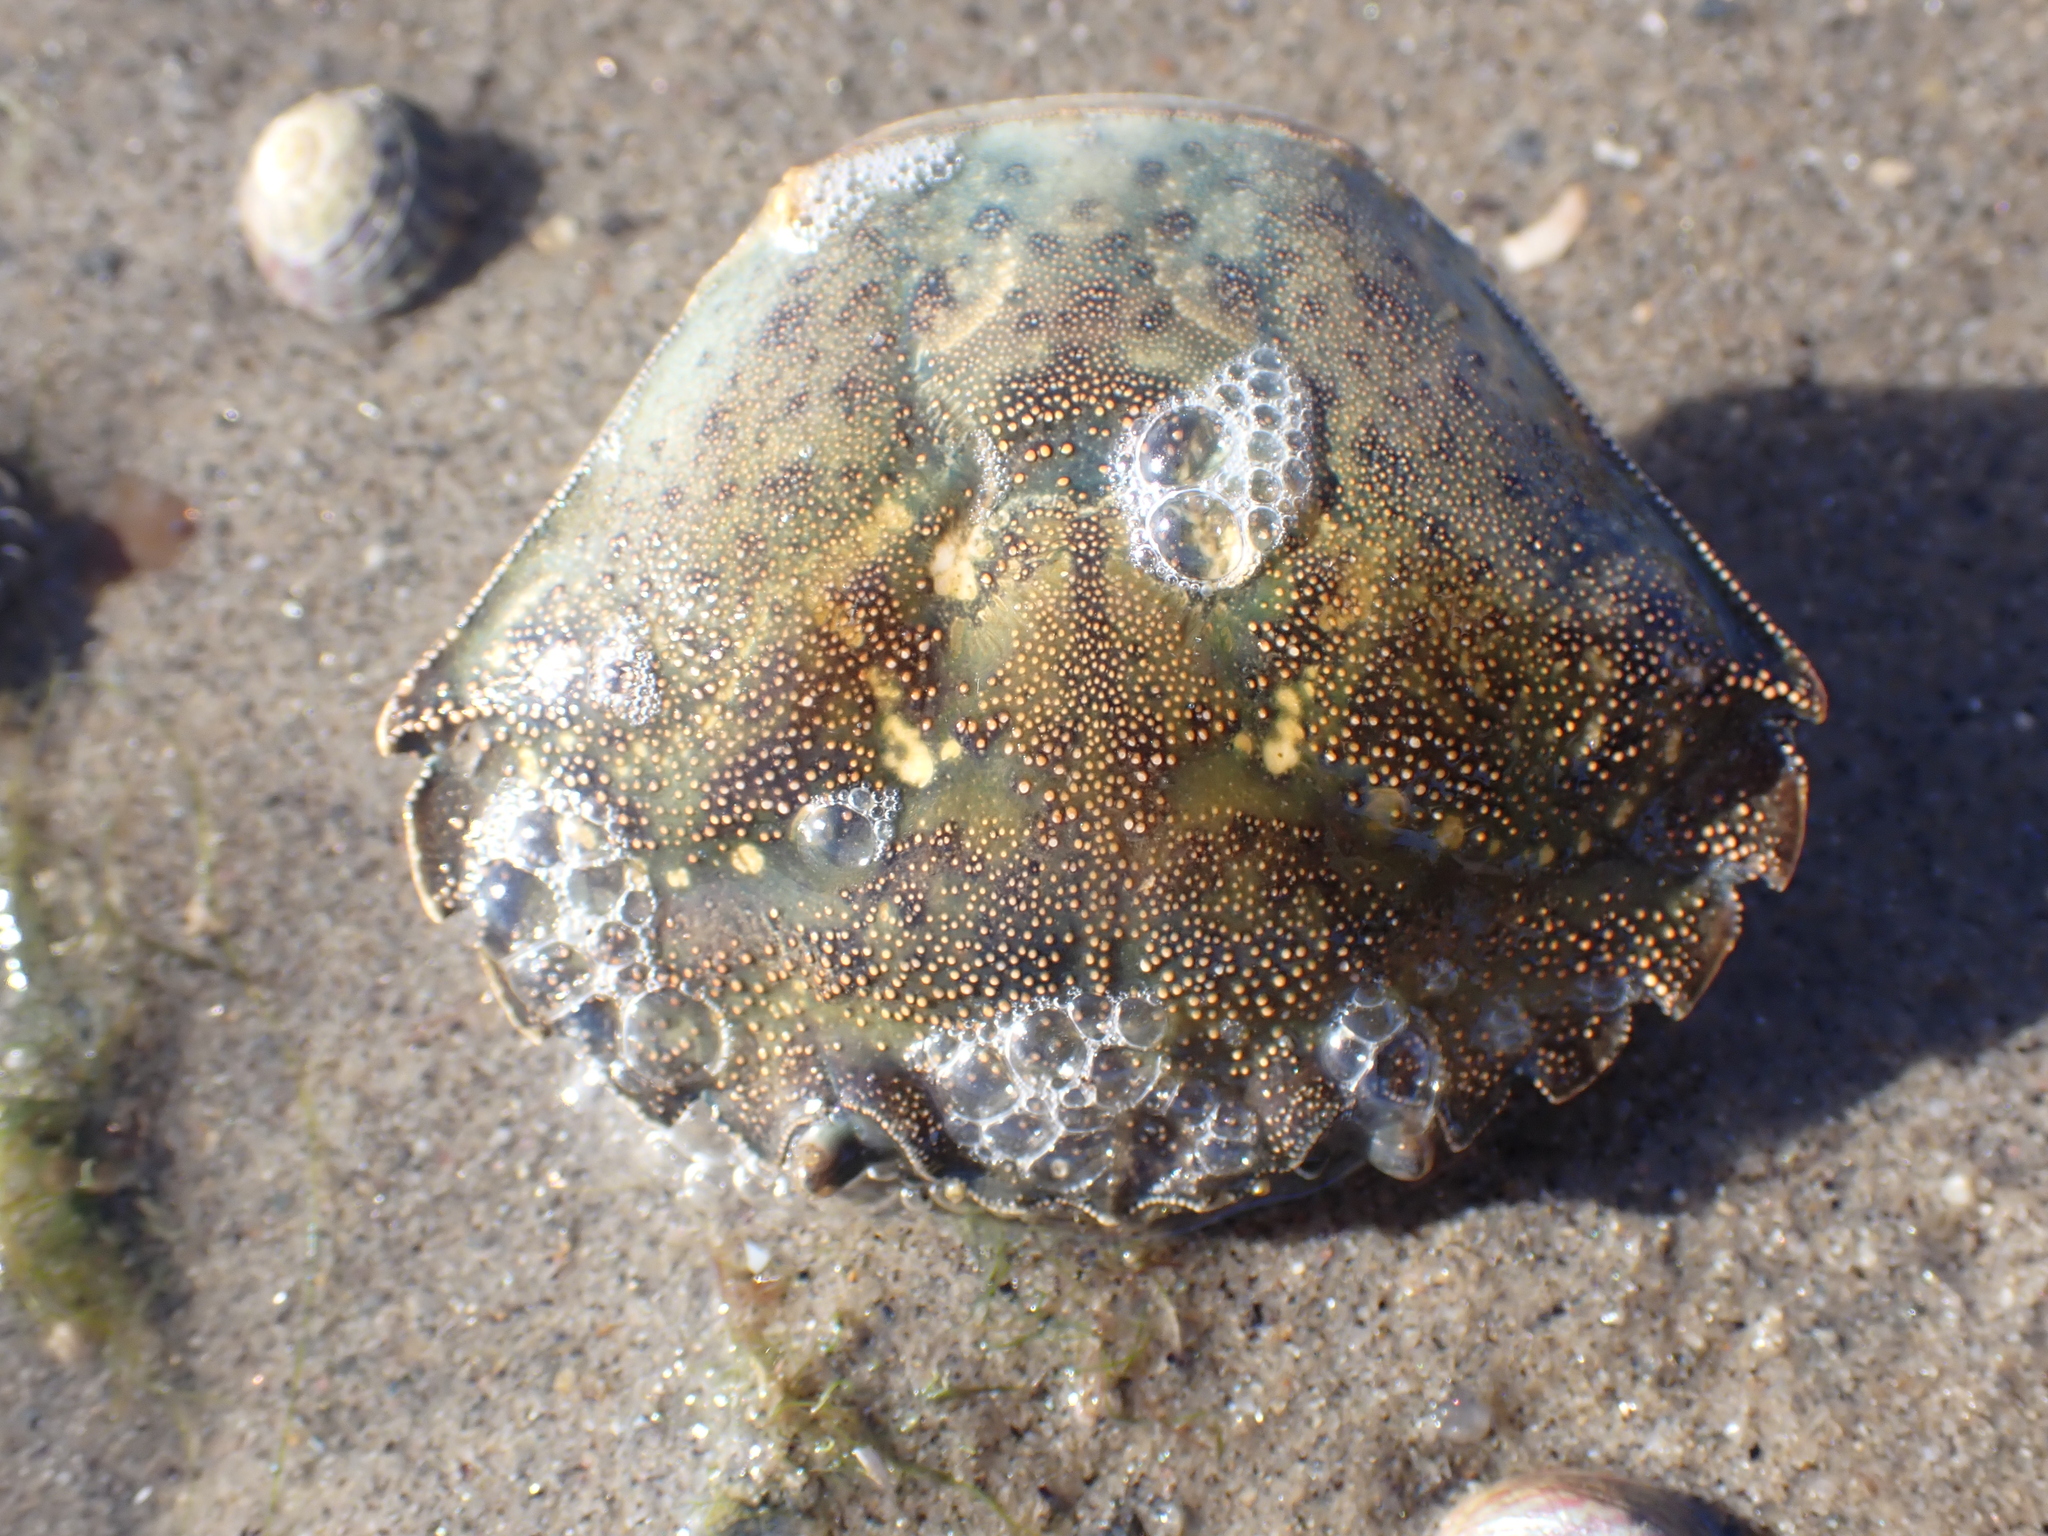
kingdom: Animalia
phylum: Arthropoda
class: Malacostraca
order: Decapoda
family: Carcinidae
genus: Carcinus
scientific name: Carcinus maenas
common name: European green crab
